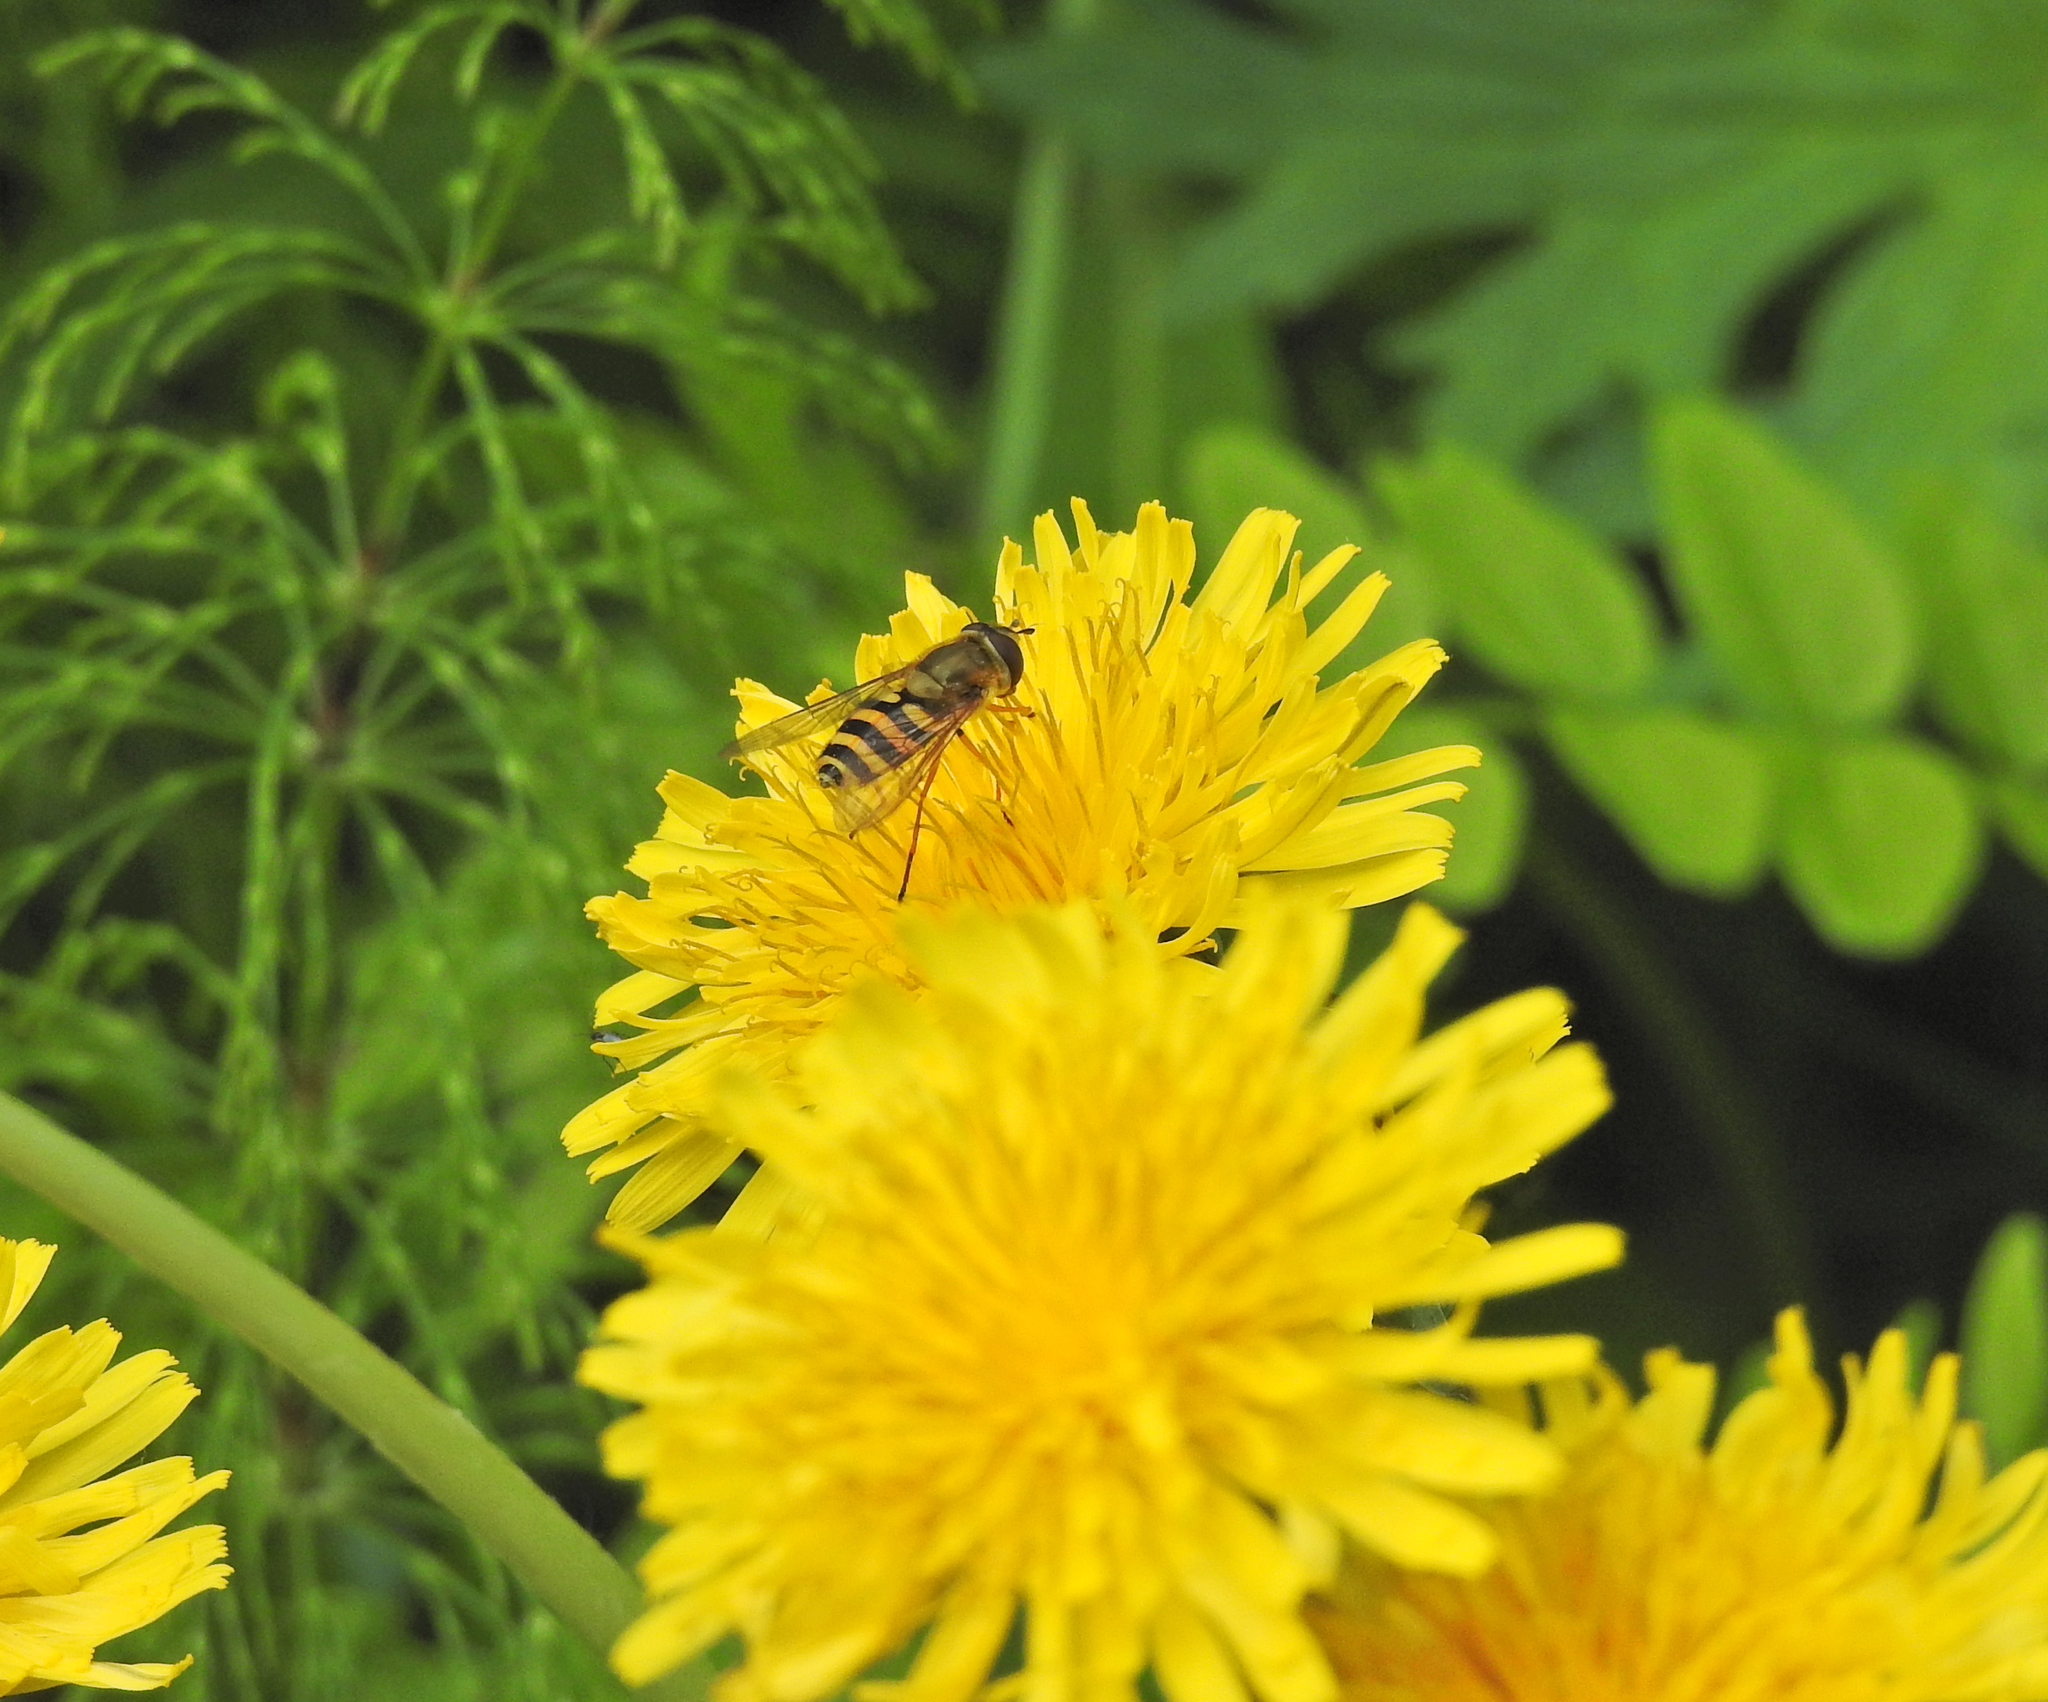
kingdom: Animalia
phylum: Arthropoda
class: Insecta
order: Diptera
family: Syrphidae
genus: Syrphus
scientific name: Syrphus ribesii
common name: Common flower fly
